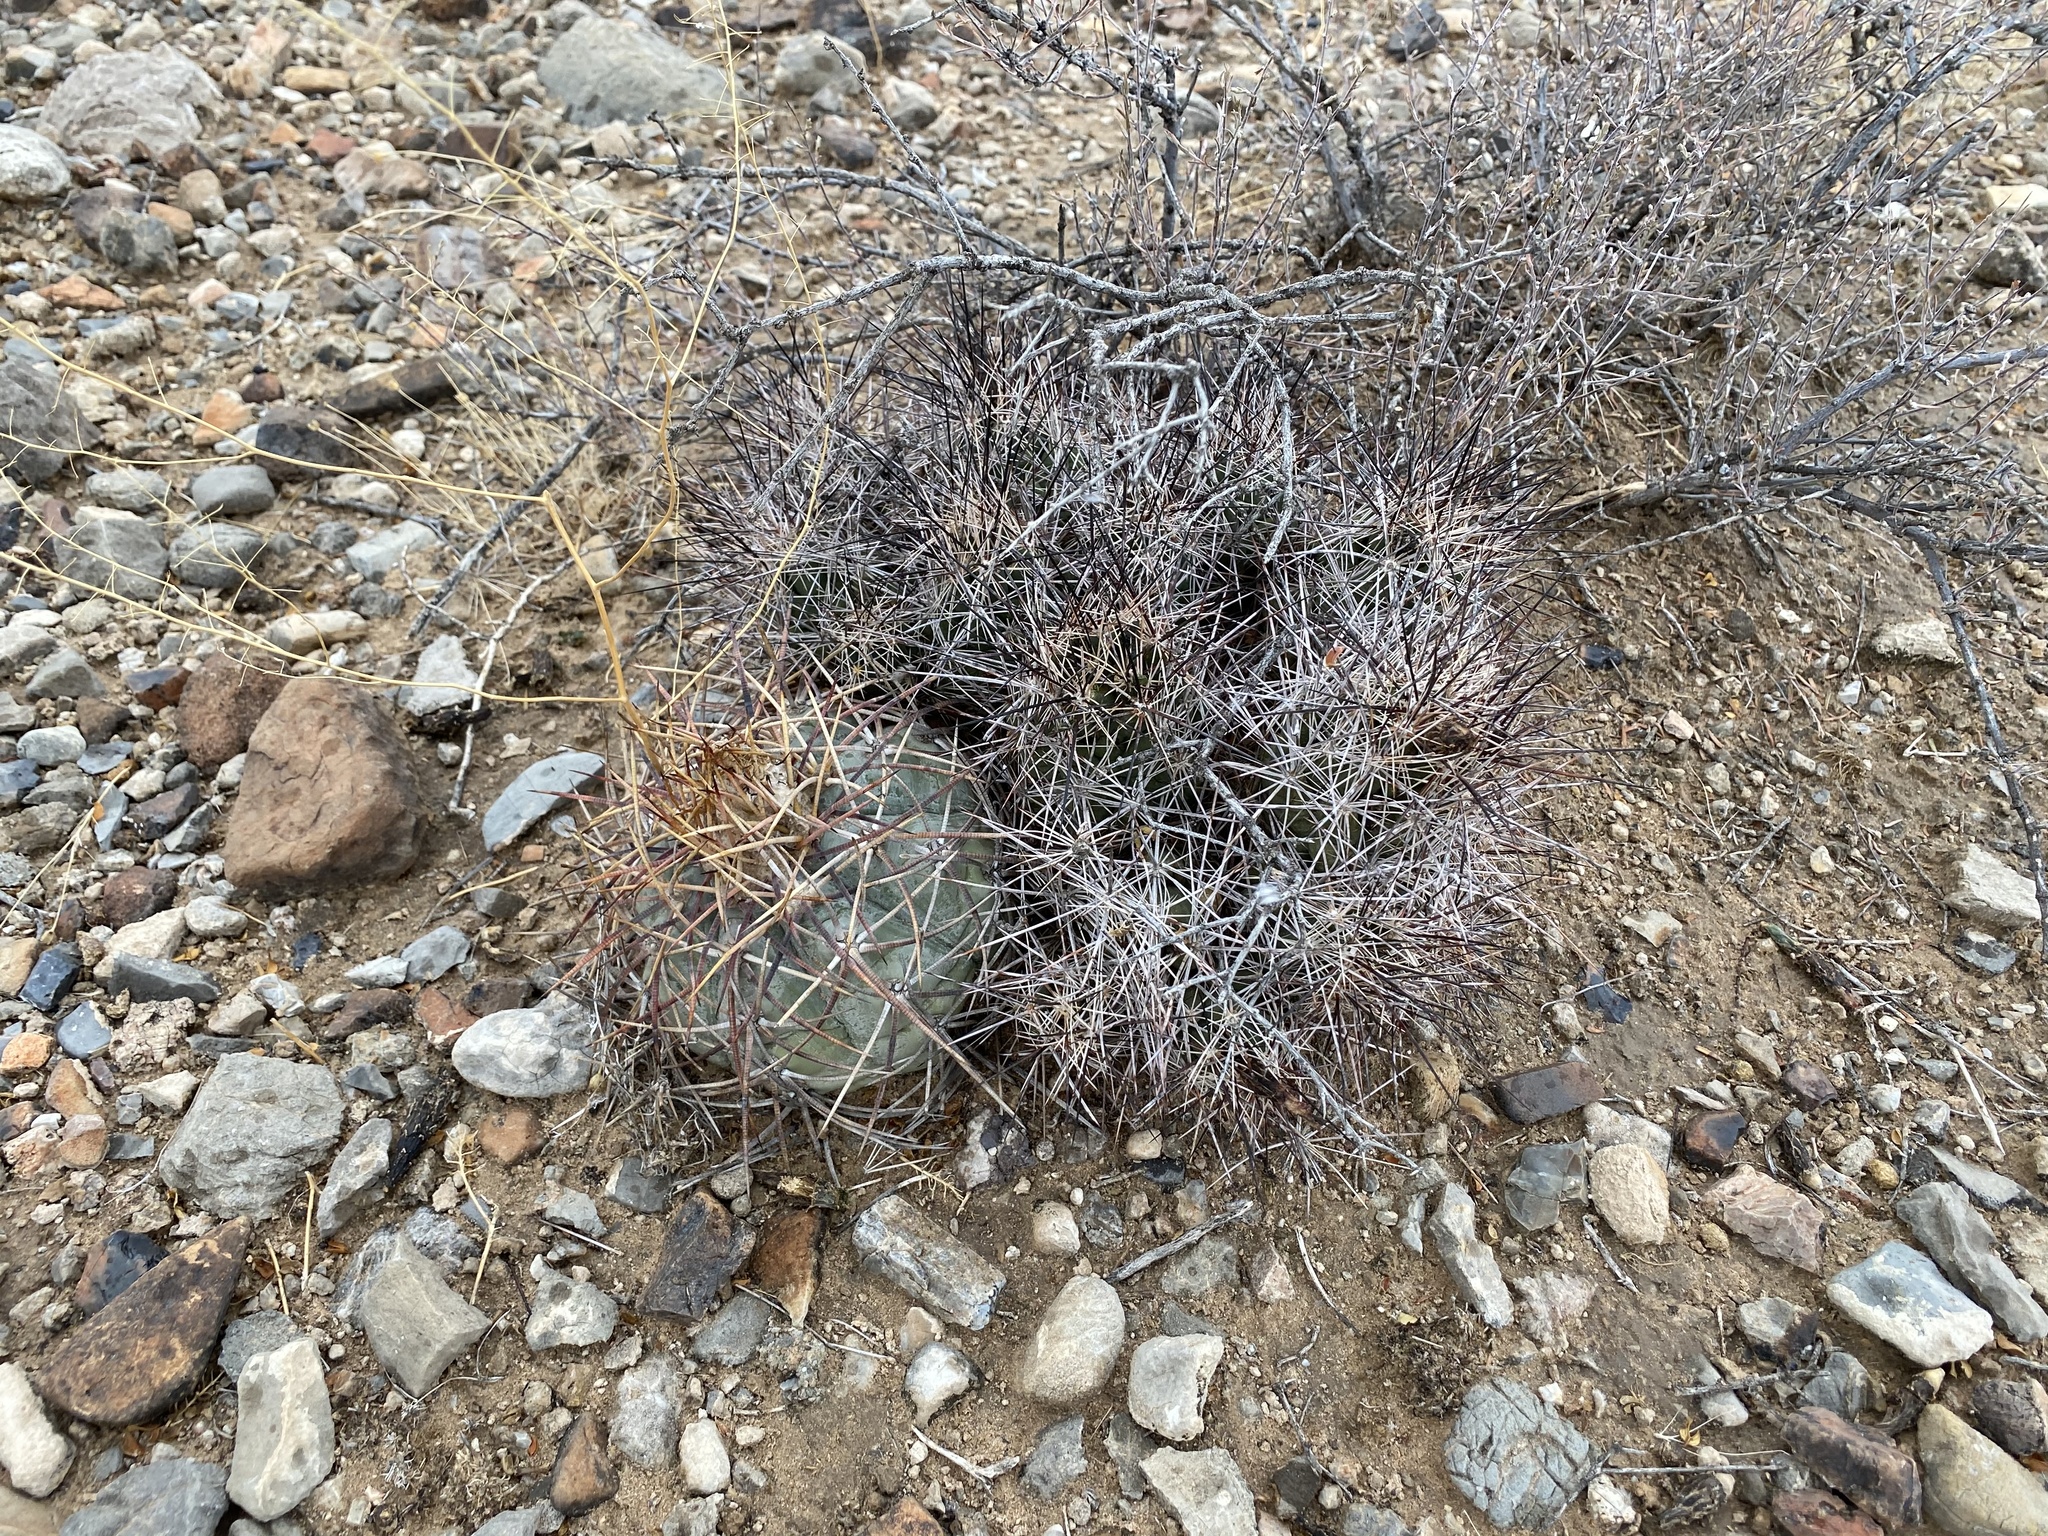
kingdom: Plantae
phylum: Tracheophyta
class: Magnoliopsida
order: Caryophyllales
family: Cactaceae
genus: Coryphantha
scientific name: Coryphantha macromeris
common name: Nipple beehive cactus
